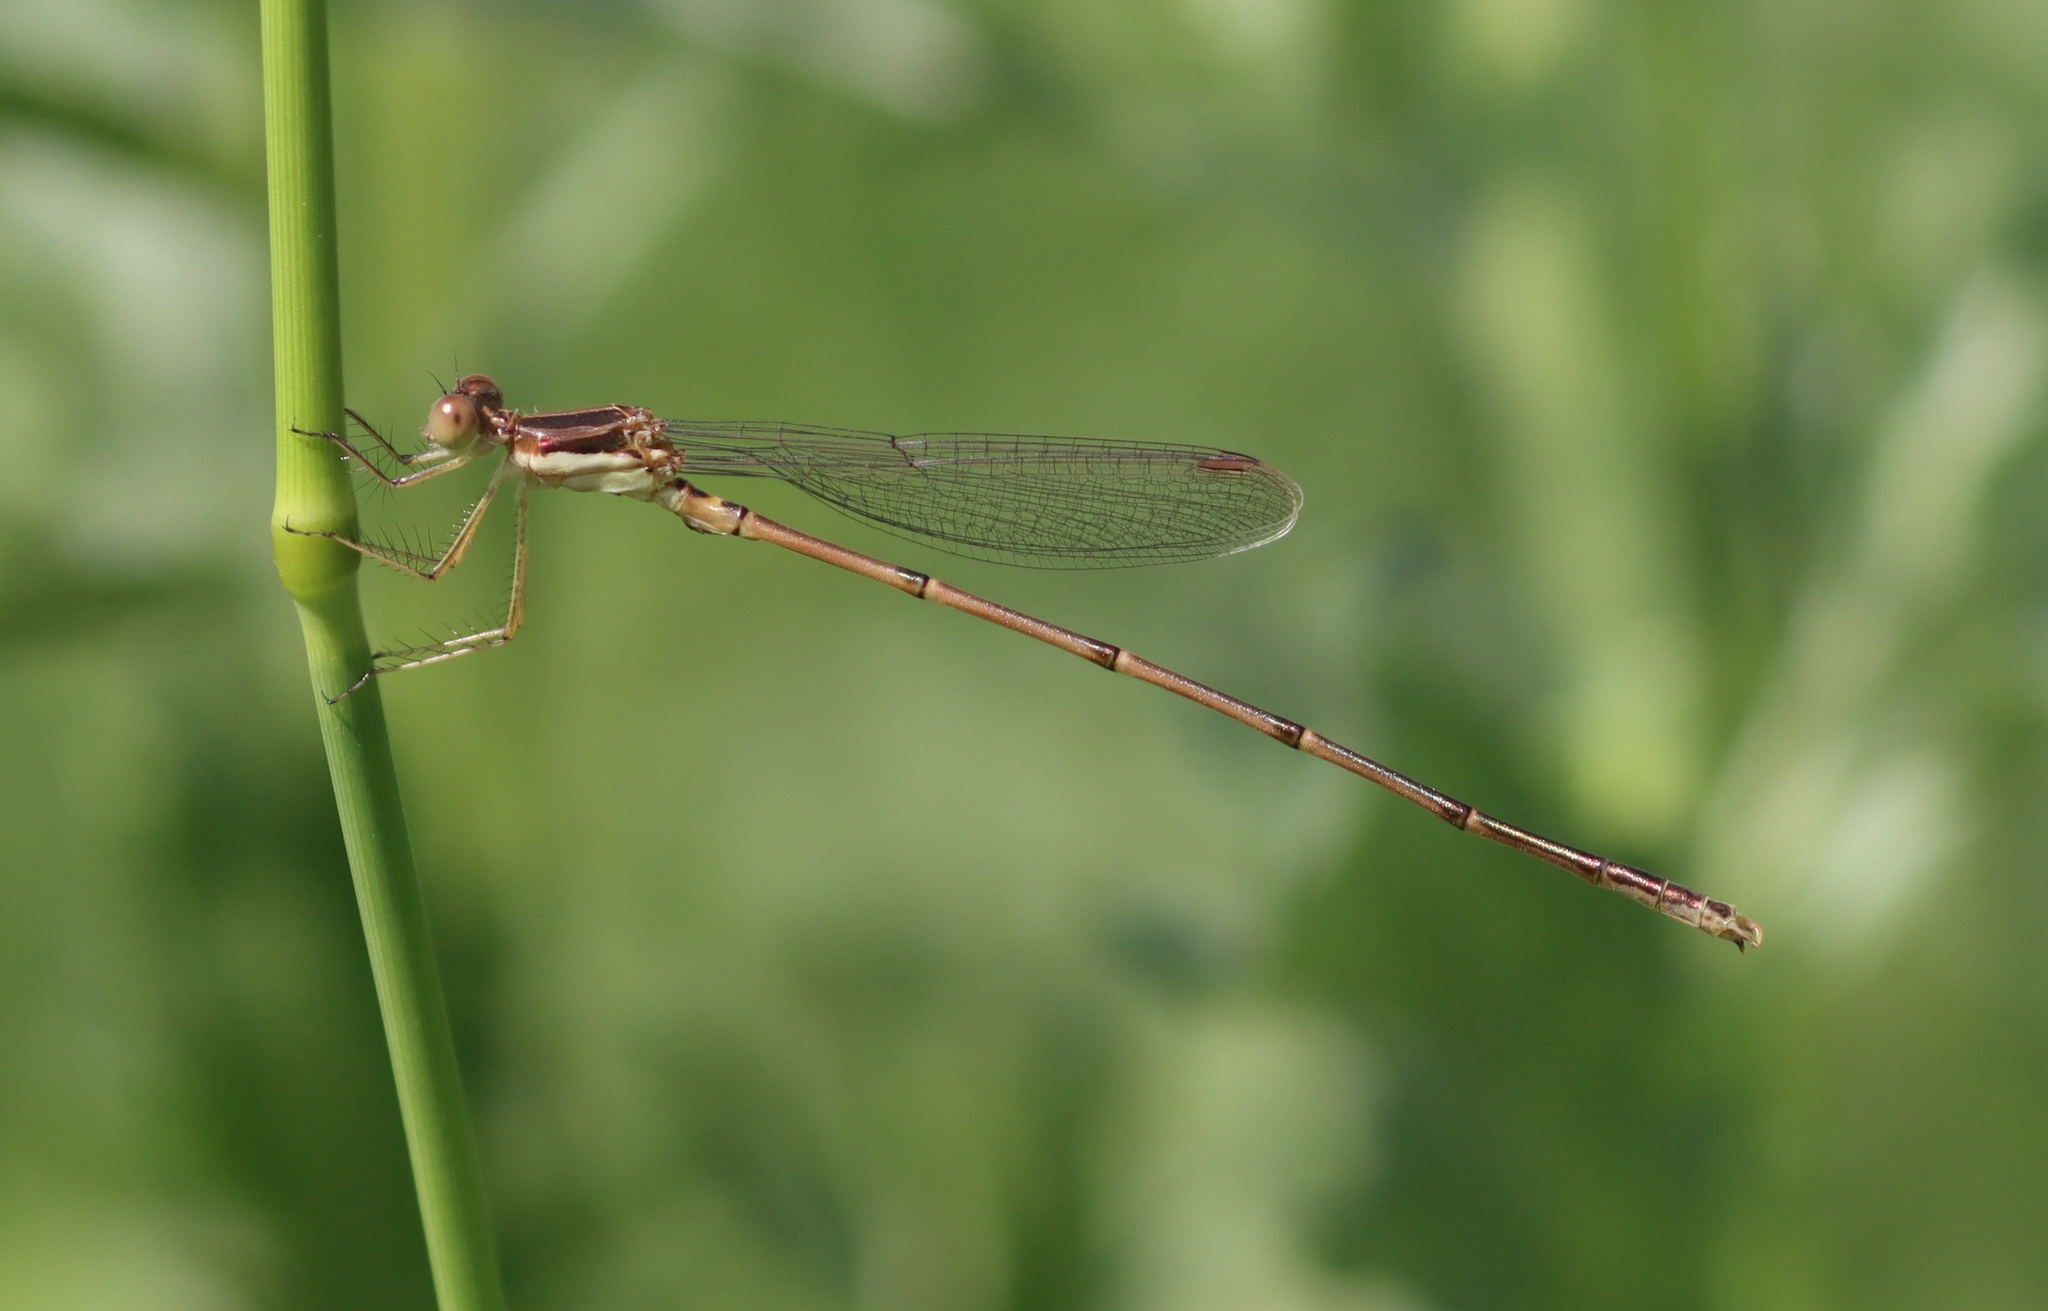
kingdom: Animalia
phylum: Arthropoda
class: Insecta
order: Odonata
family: Lestidae
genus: Lestes
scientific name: Lestes rectangularis
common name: Slender spreadwing
